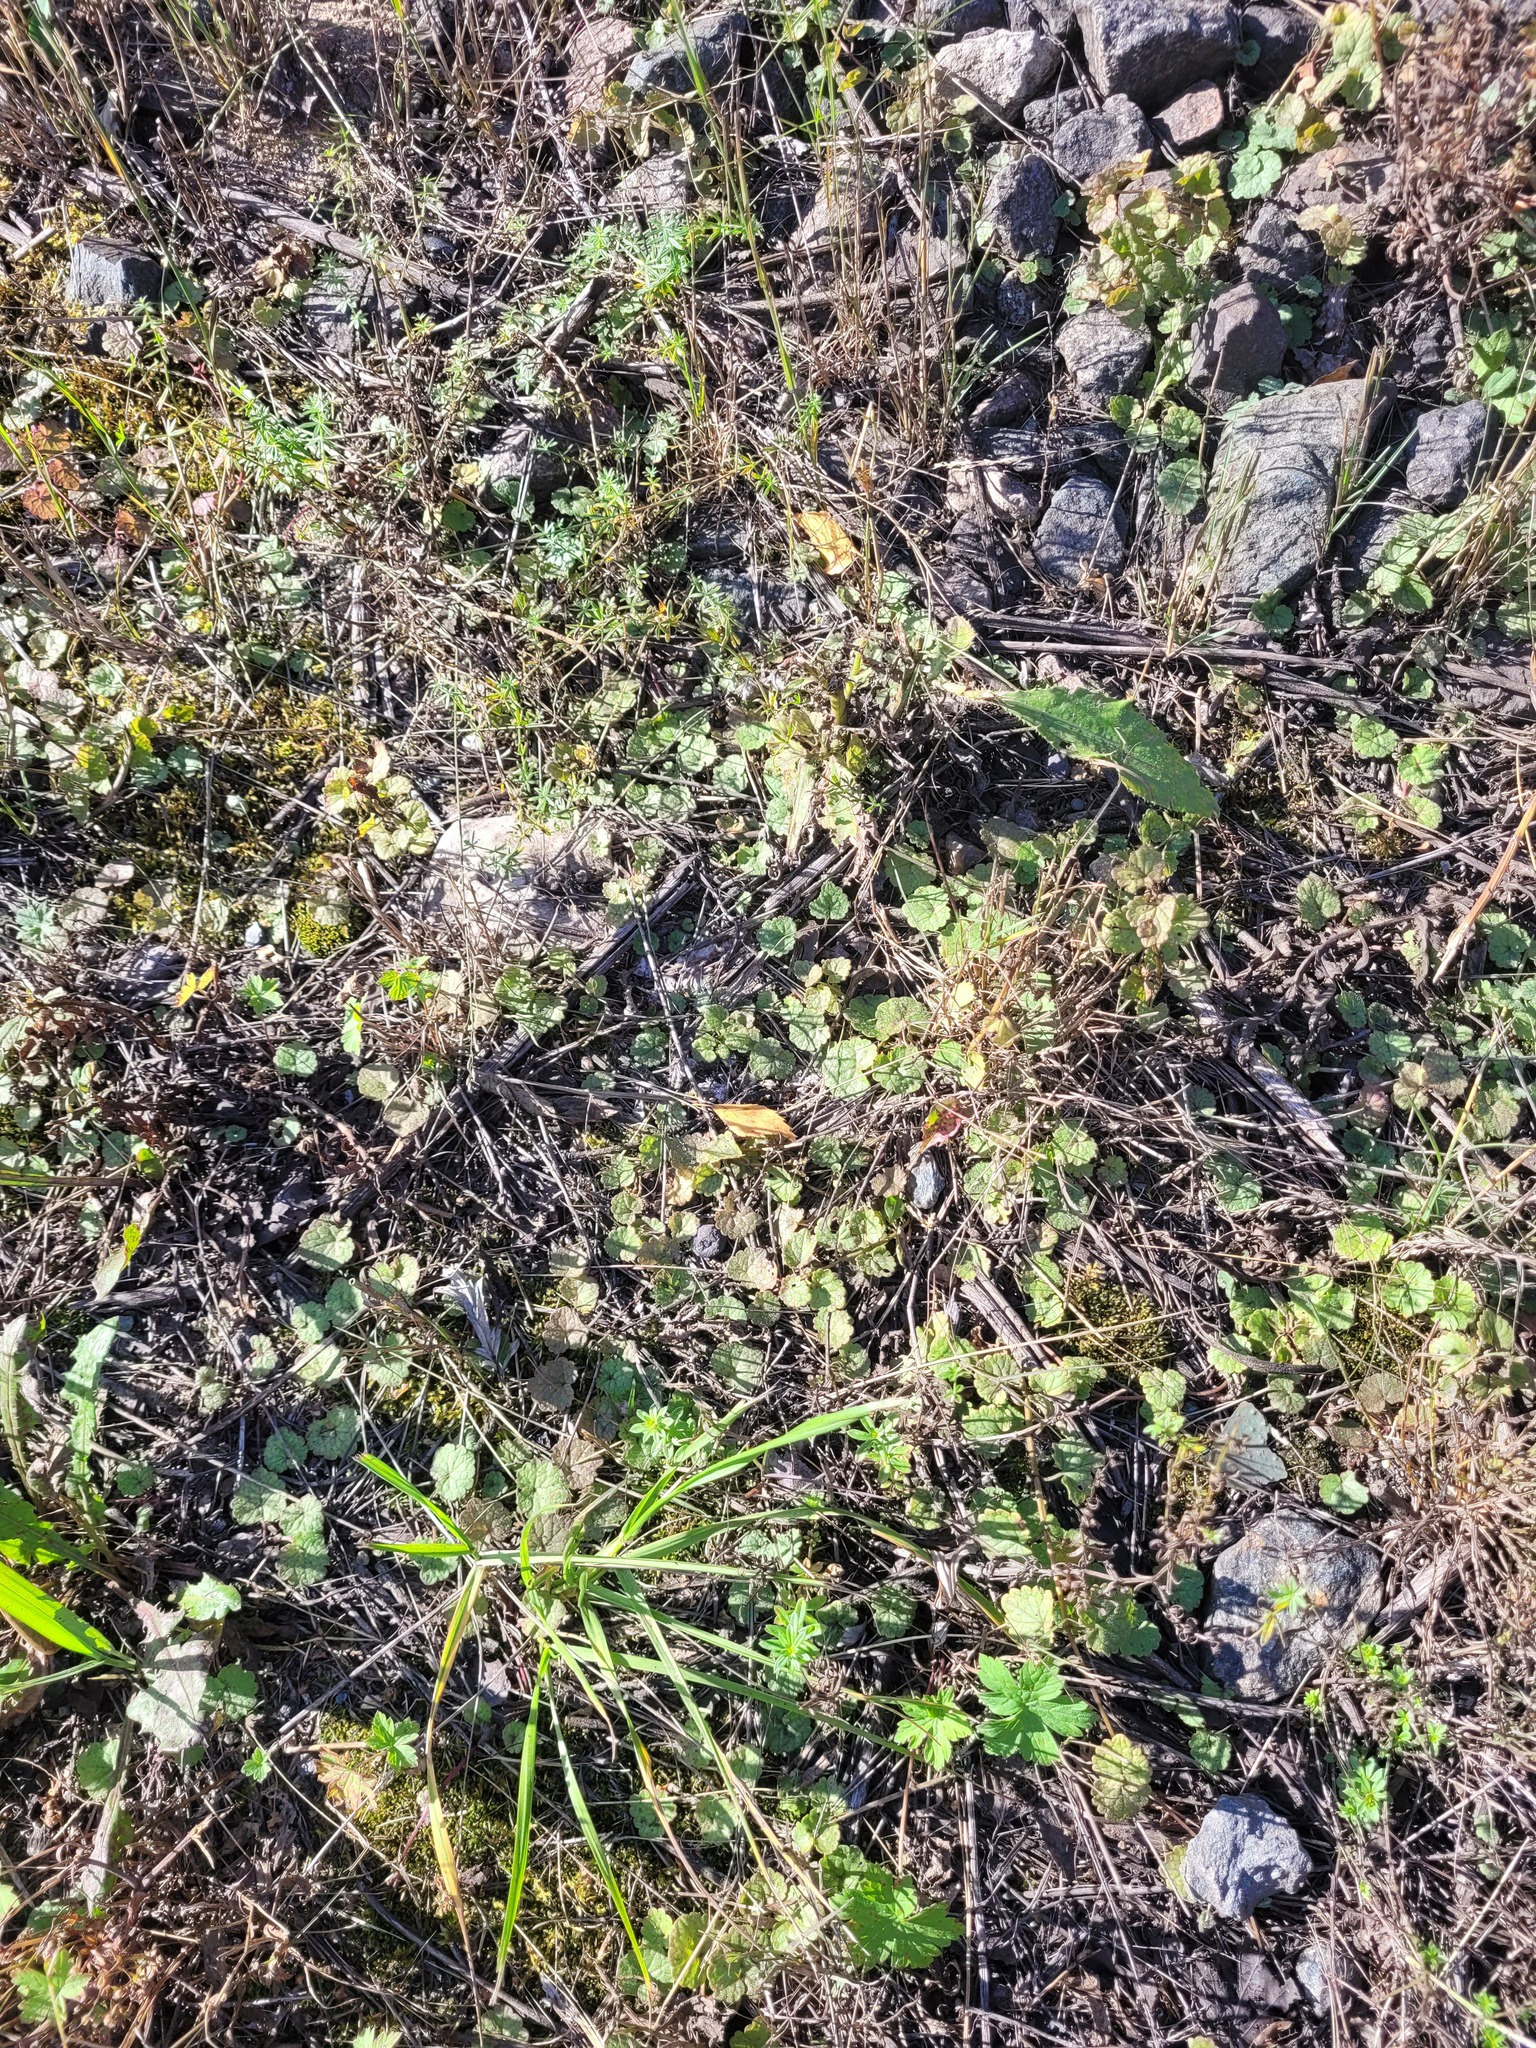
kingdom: Plantae
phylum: Tracheophyta
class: Magnoliopsida
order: Lamiales
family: Lamiaceae
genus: Glechoma
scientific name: Glechoma hederacea
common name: Ground ivy
